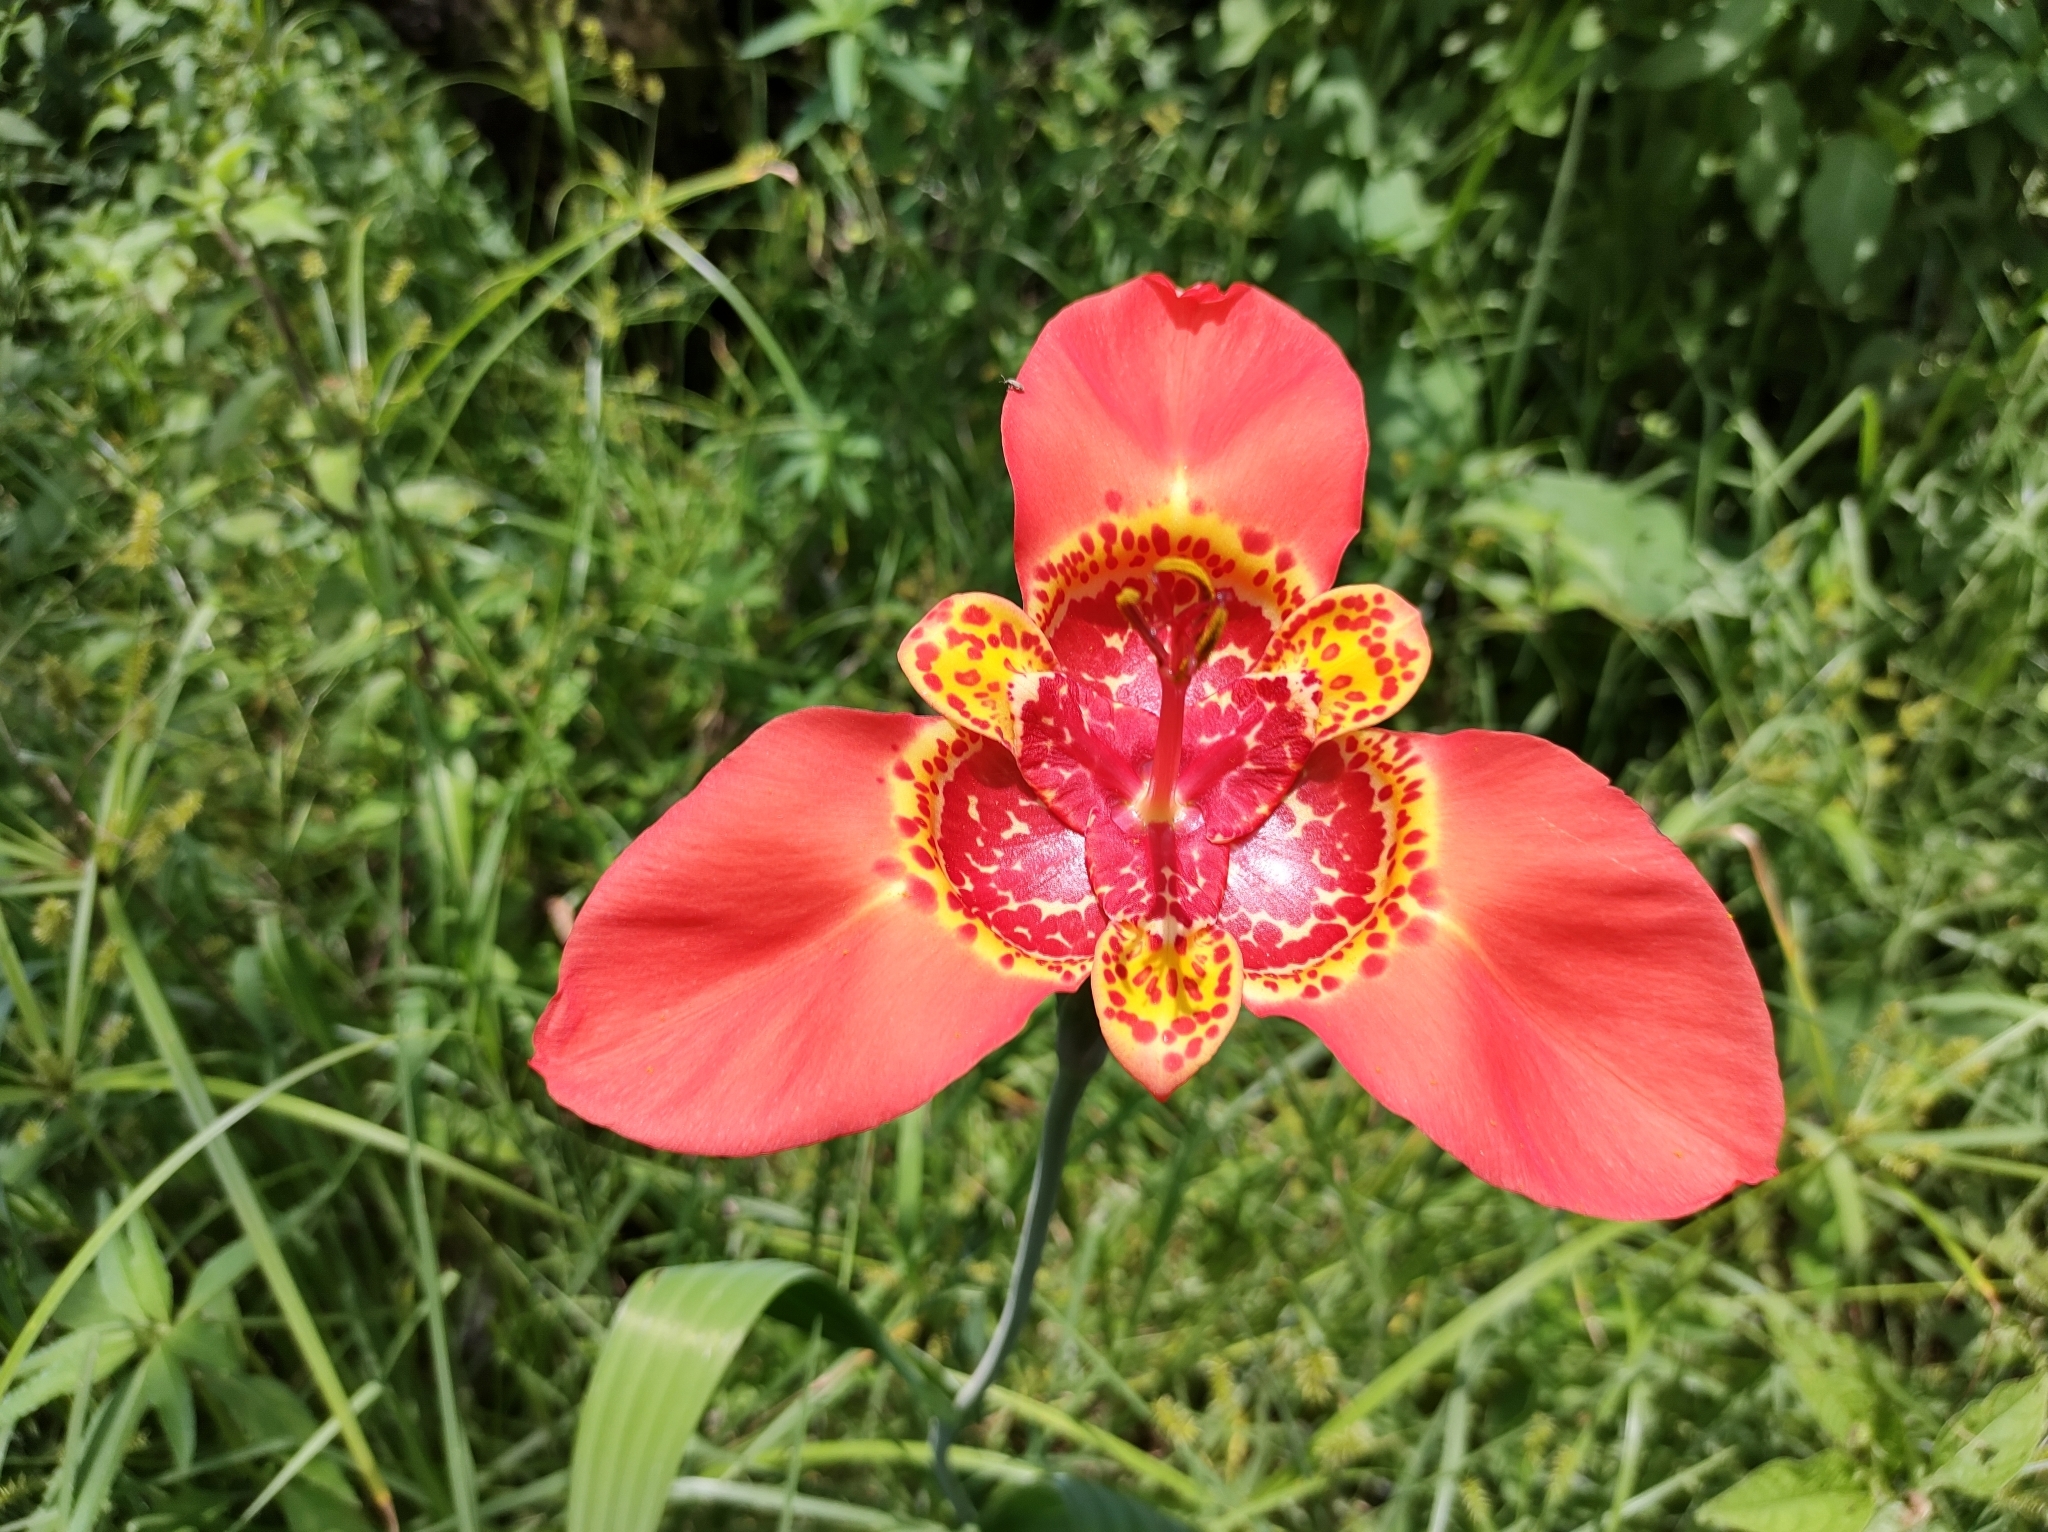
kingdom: Plantae
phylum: Tracheophyta
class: Liliopsida
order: Asparagales
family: Iridaceae
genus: Tigridia
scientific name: Tigridia pavonia
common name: Peacock-flower
